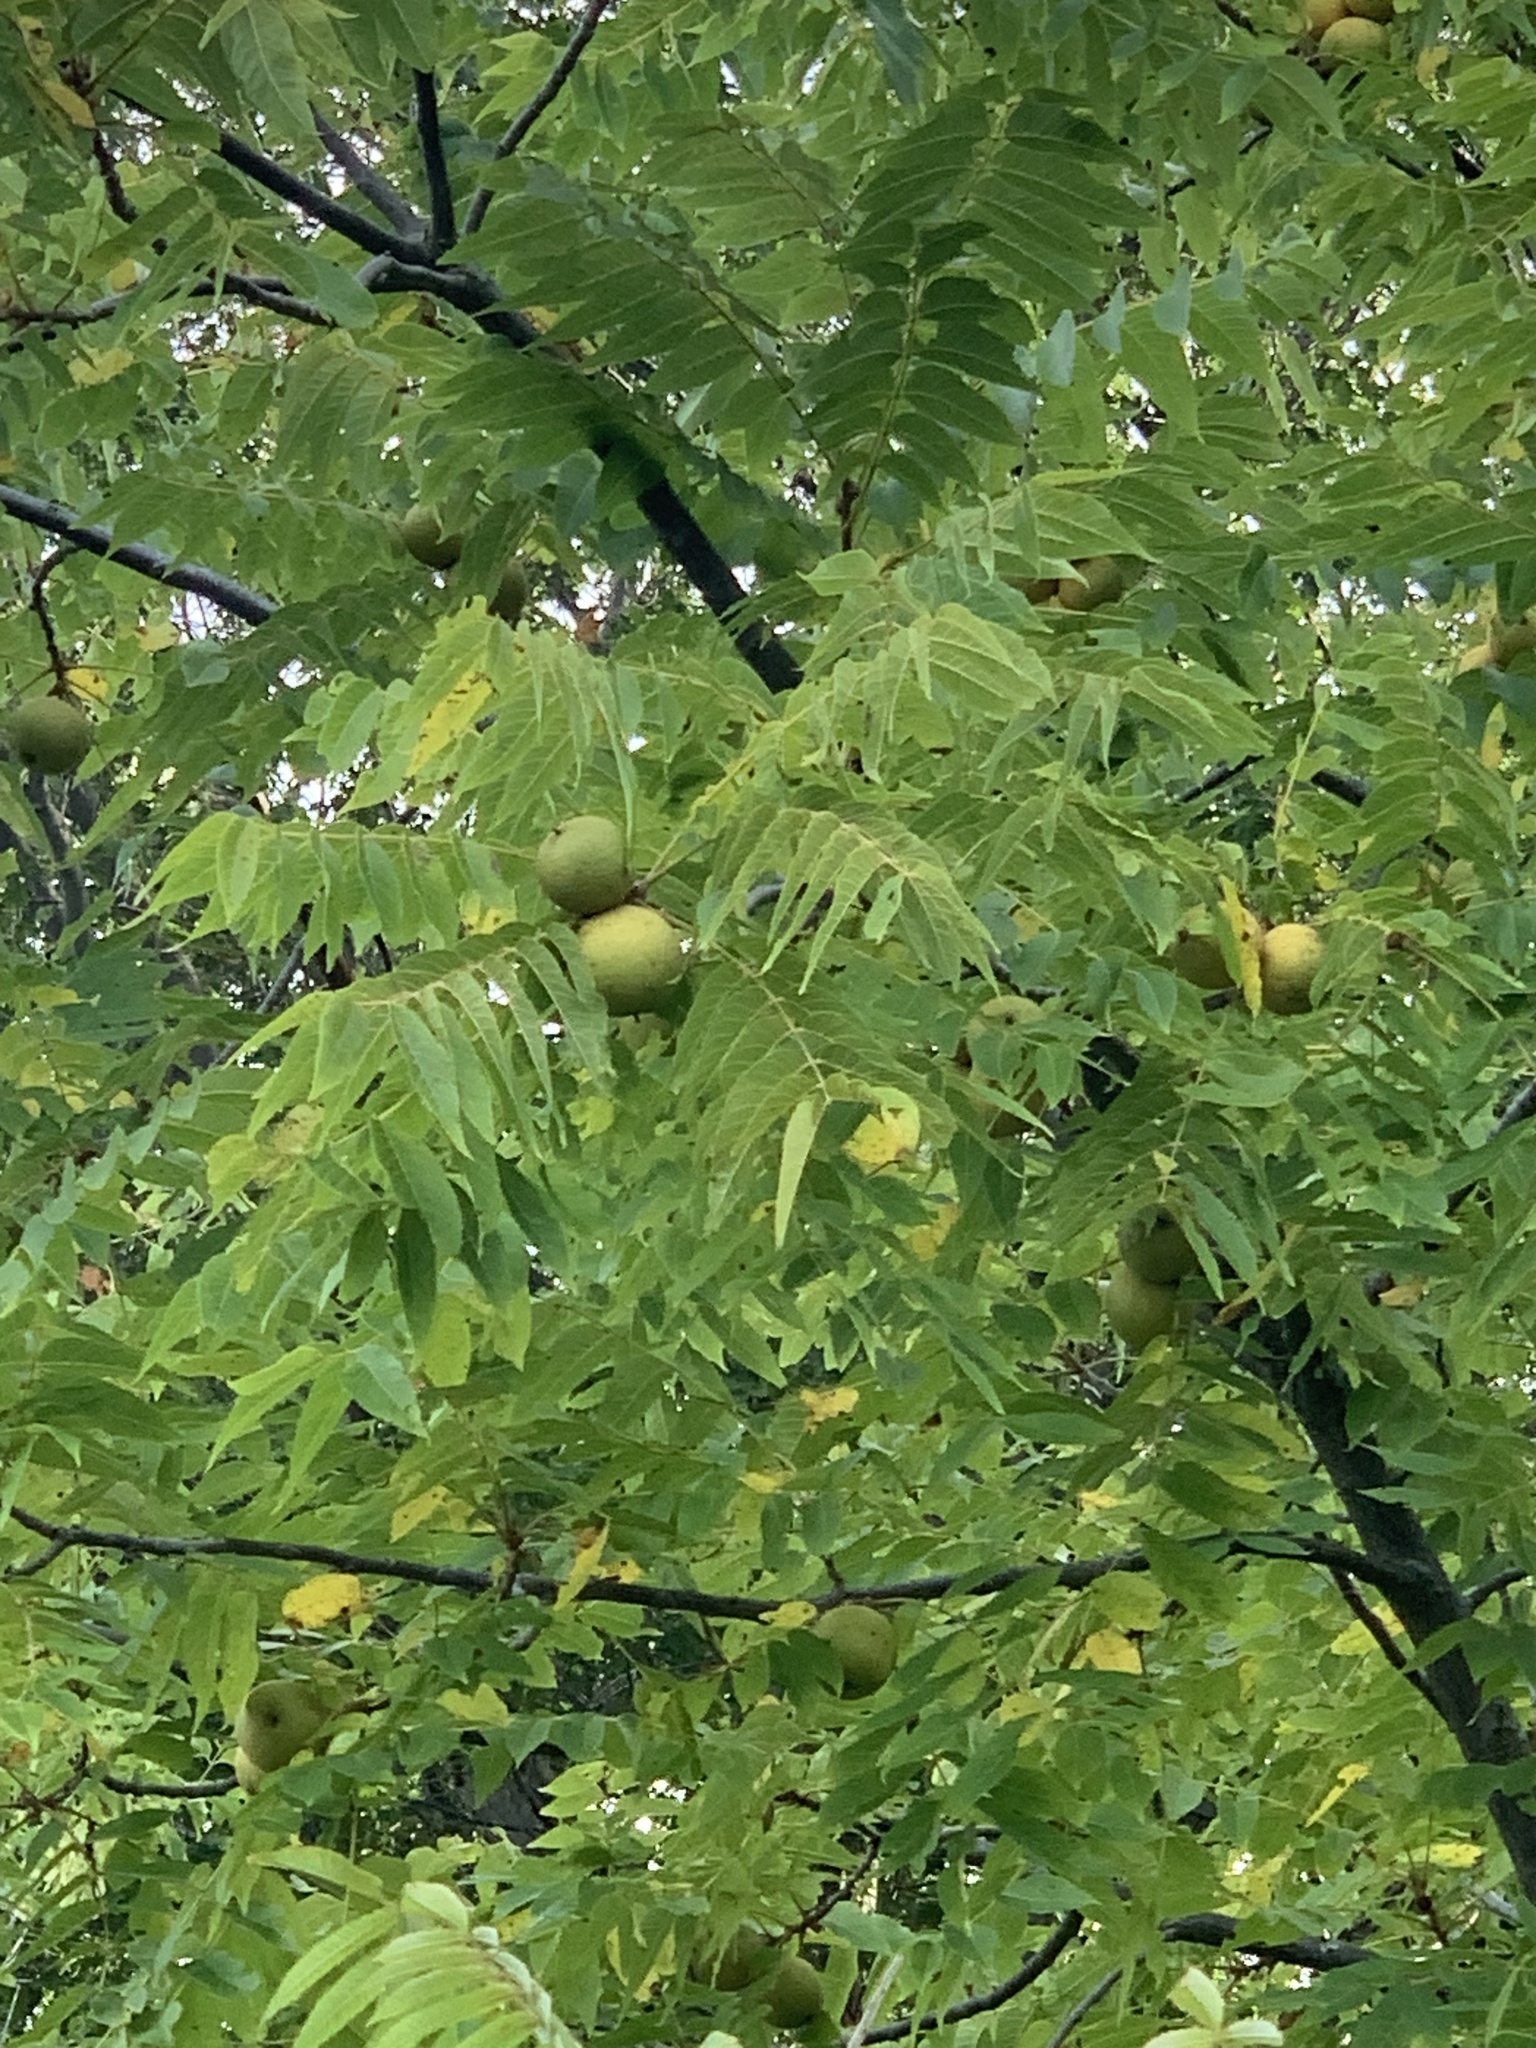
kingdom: Plantae
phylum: Tracheophyta
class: Magnoliopsida
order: Fagales
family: Juglandaceae
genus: Juglans
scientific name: Juglans nigra
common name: Black walnut
